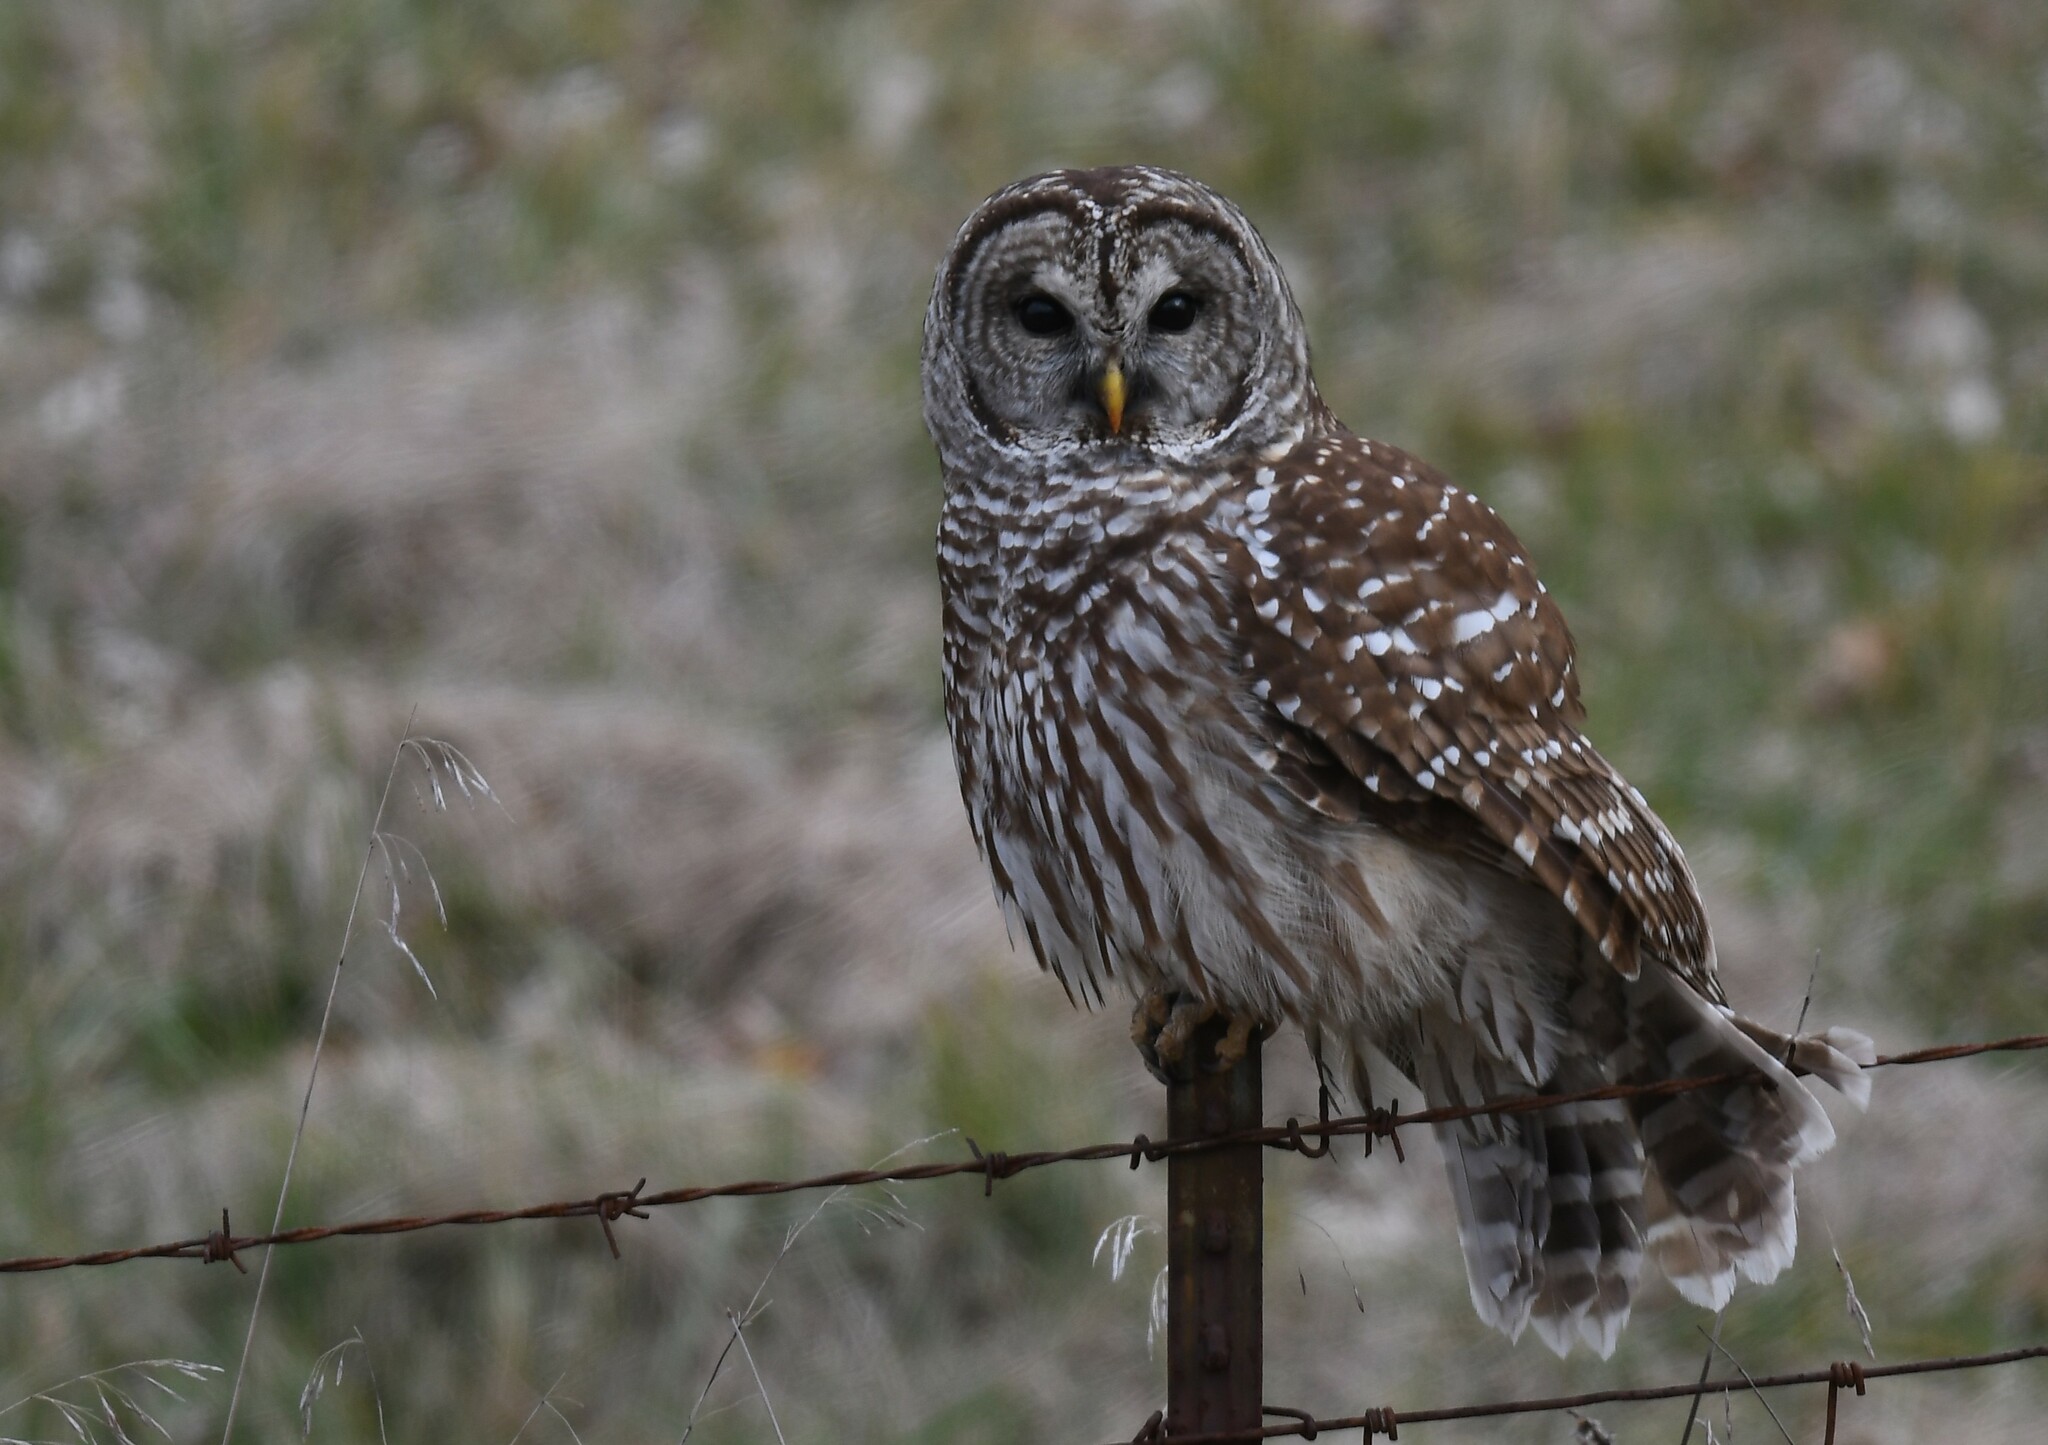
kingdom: Animalia
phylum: Chordata
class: Aves
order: Strigiformes
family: Strigidae
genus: Strix
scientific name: Strix varia
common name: Barred owl
